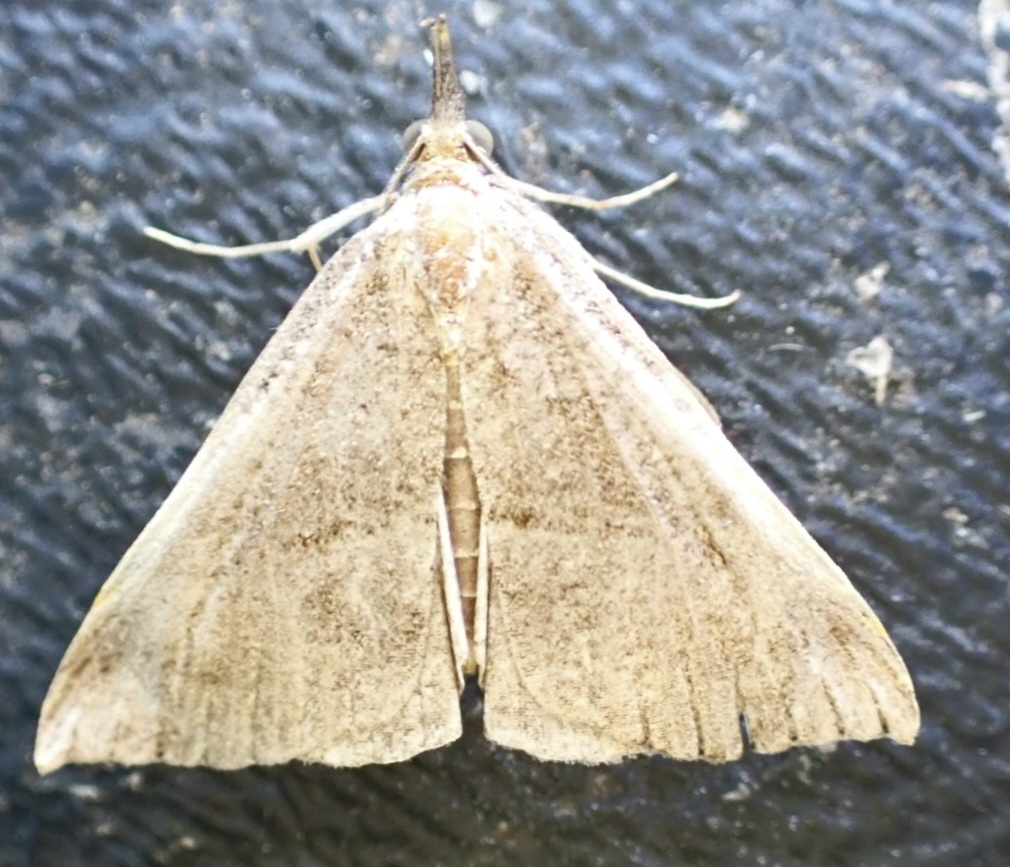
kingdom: Animalia
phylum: Arthropoda
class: Insecta
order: Lepidoptera
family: Erebidae
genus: Hypena
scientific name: Hypena proboscidalis
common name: Snout
